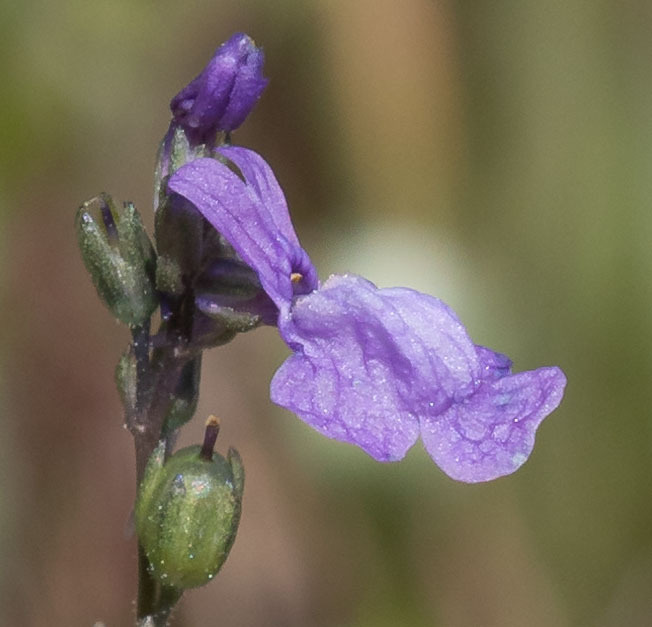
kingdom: Plantae
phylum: Tracheophyta
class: Magnoliopsida
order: Lamiales
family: Plantaginaceae
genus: Nuttallanthus
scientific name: Nuttallanthus texanus
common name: Texas toadflax
